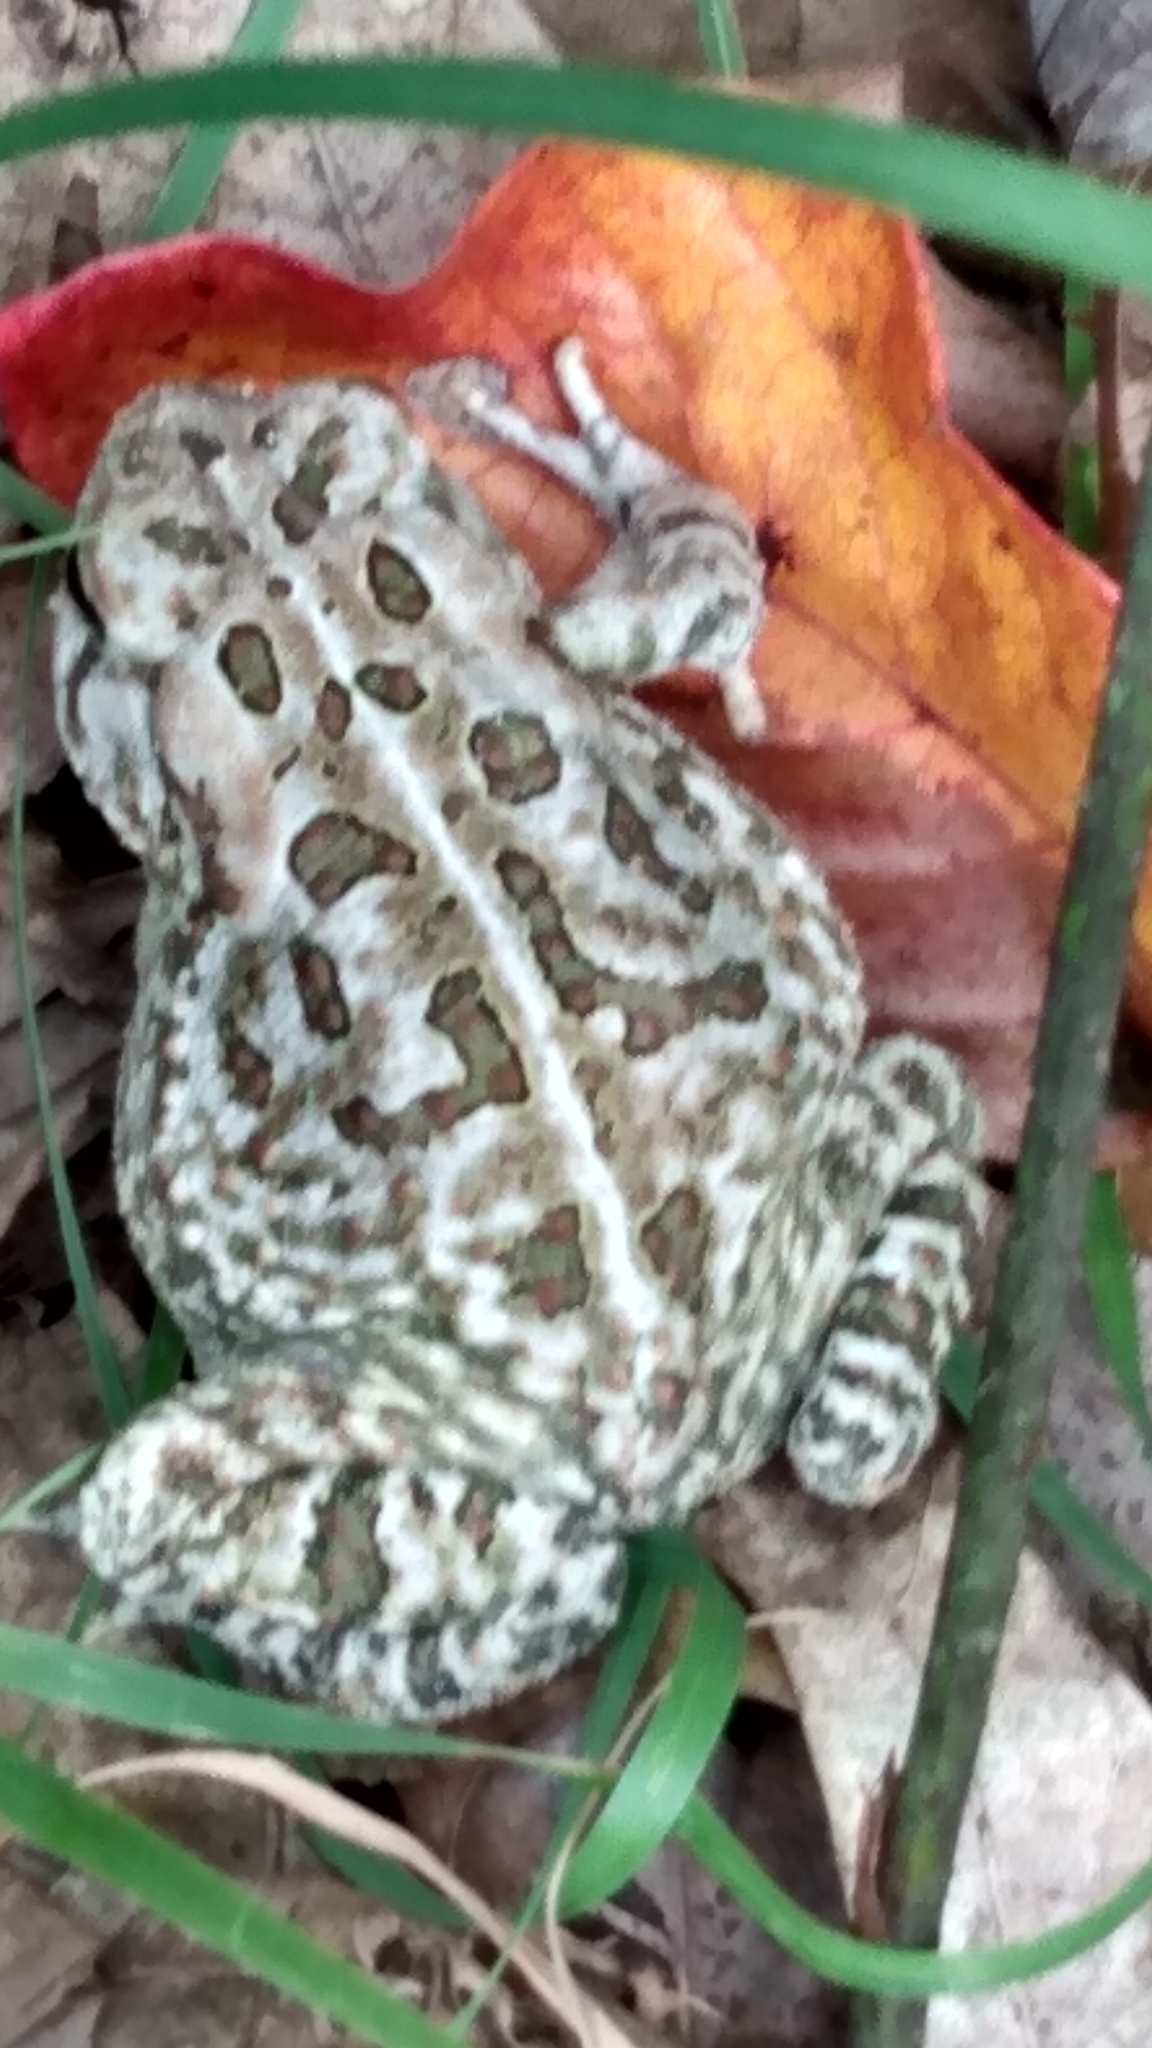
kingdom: Animalia
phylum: Chordata
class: Amphibia
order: Anura
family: Bufonidae
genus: Anaxyrus
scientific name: Anaxyrus fowleri
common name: Fowler's toad
